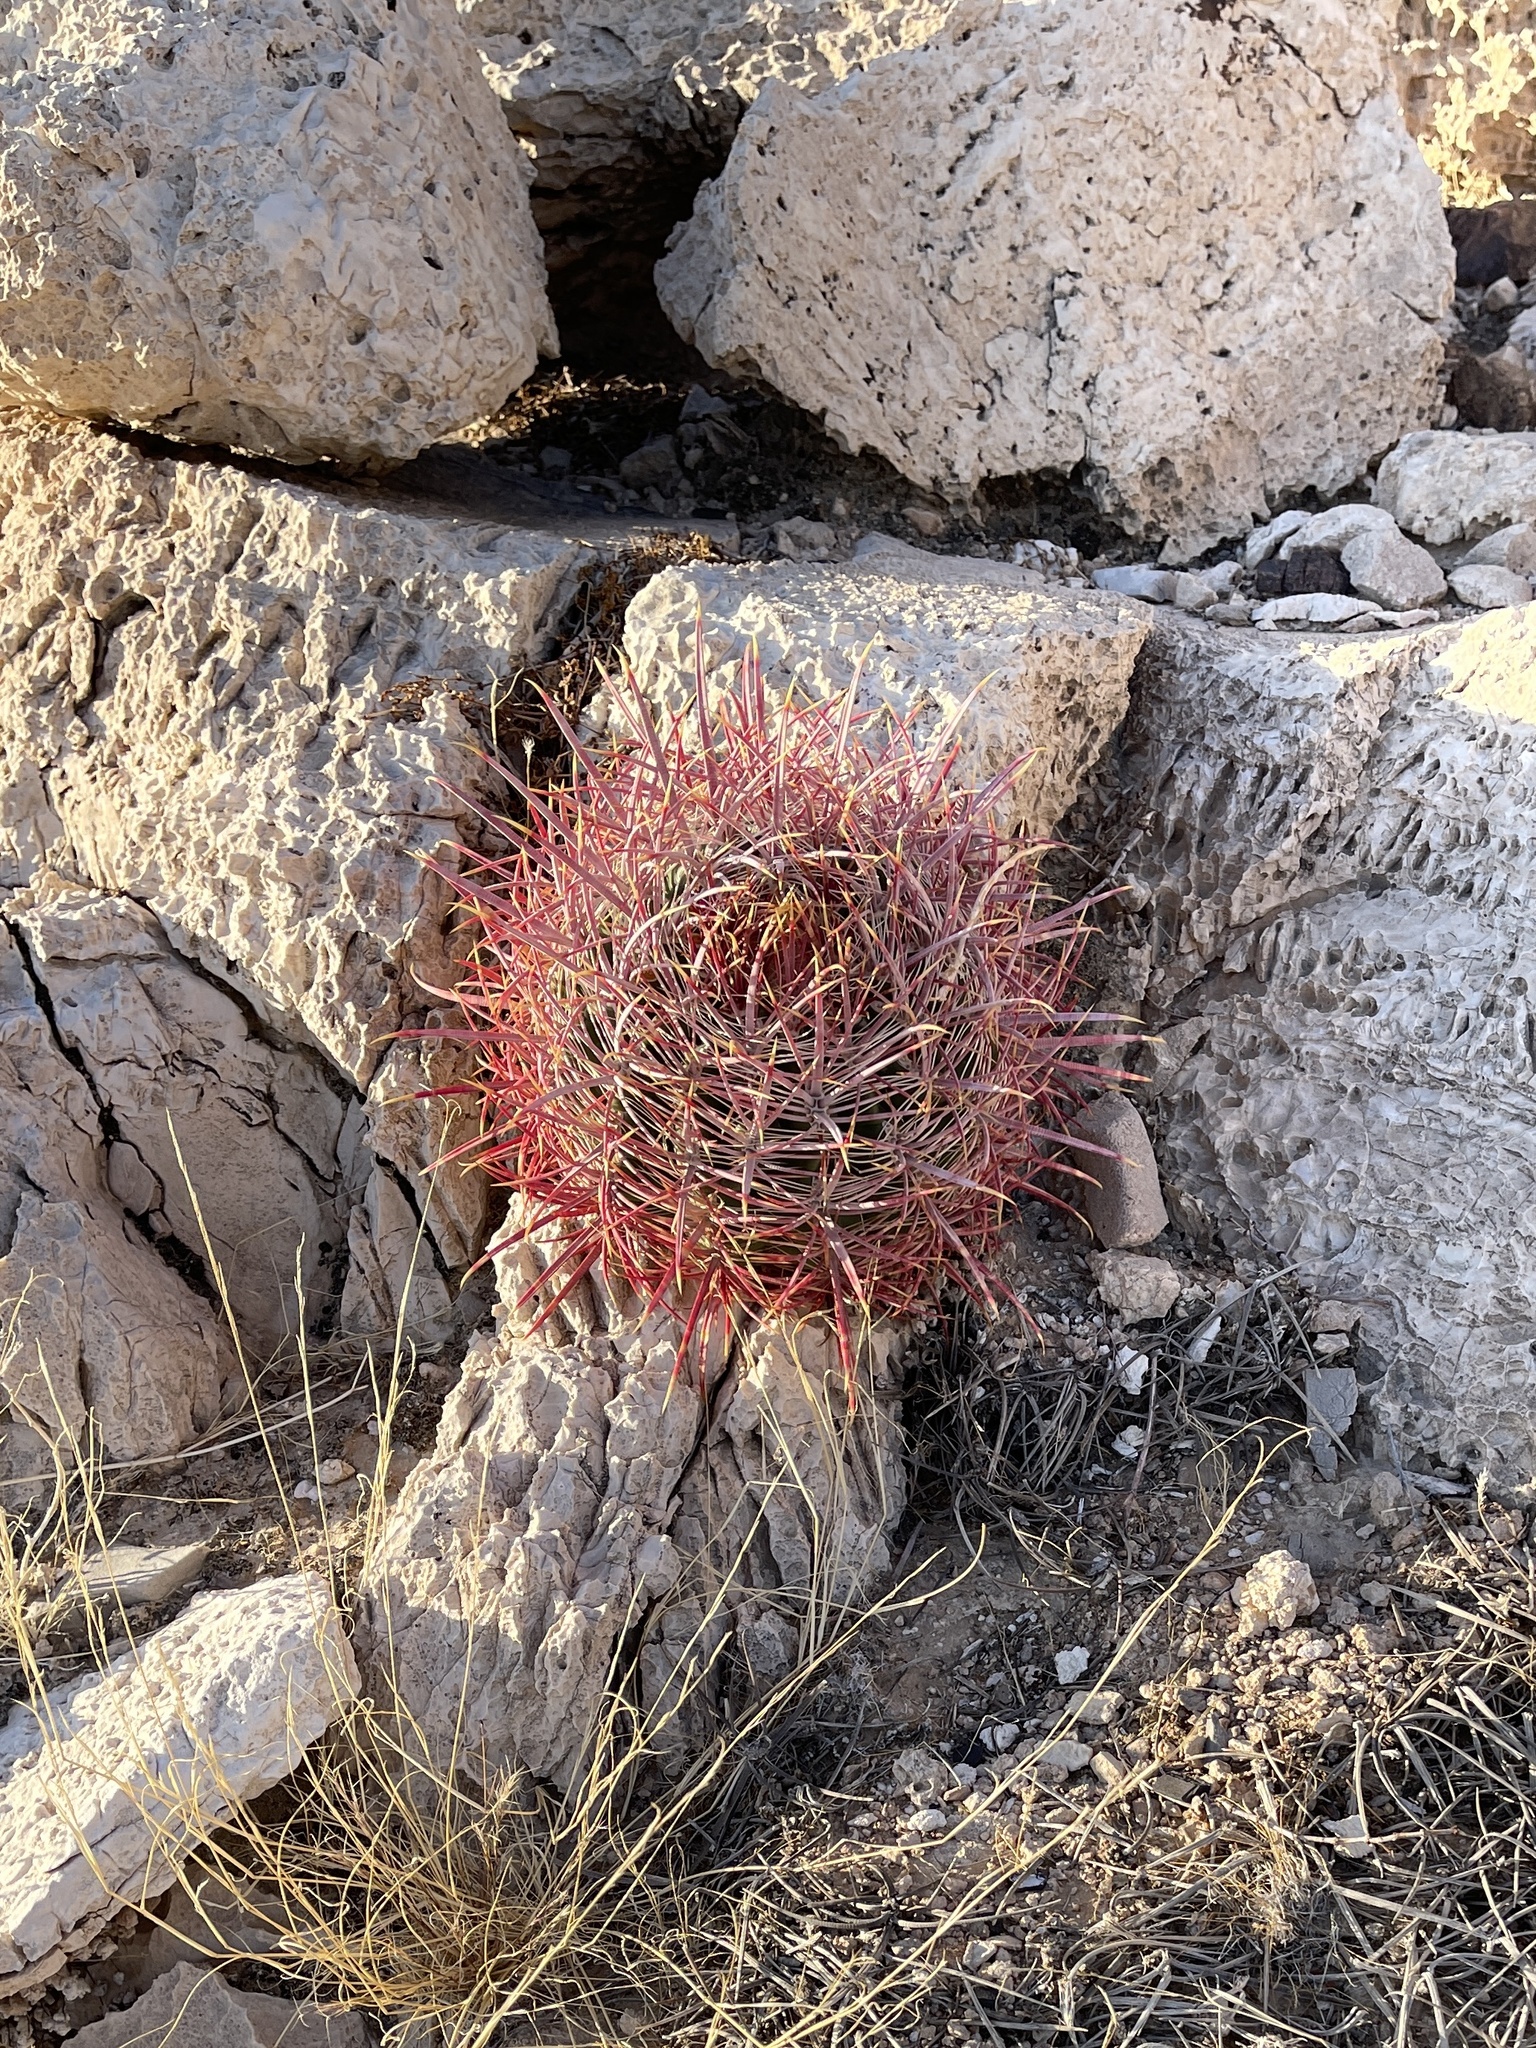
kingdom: Plantae
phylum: Tracheophyta
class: Magnoliopsida
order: Caryophyllales
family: Cactaceae
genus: Ferocactus
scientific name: Ferocactus cylindraceus
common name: California barrel cactus
